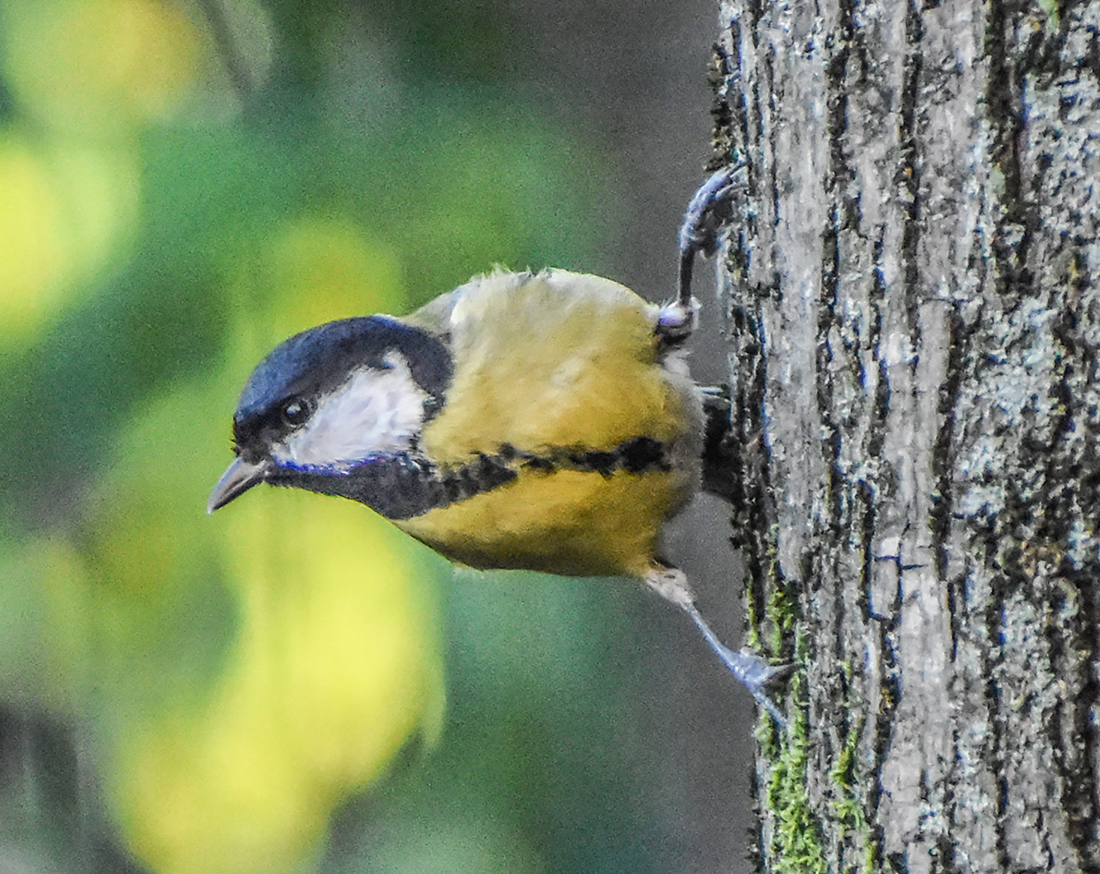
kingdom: Animalia
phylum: Chordata
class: Aves
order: Passeriformes
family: Paridae
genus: Parus
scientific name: Parus major
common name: Great tit
